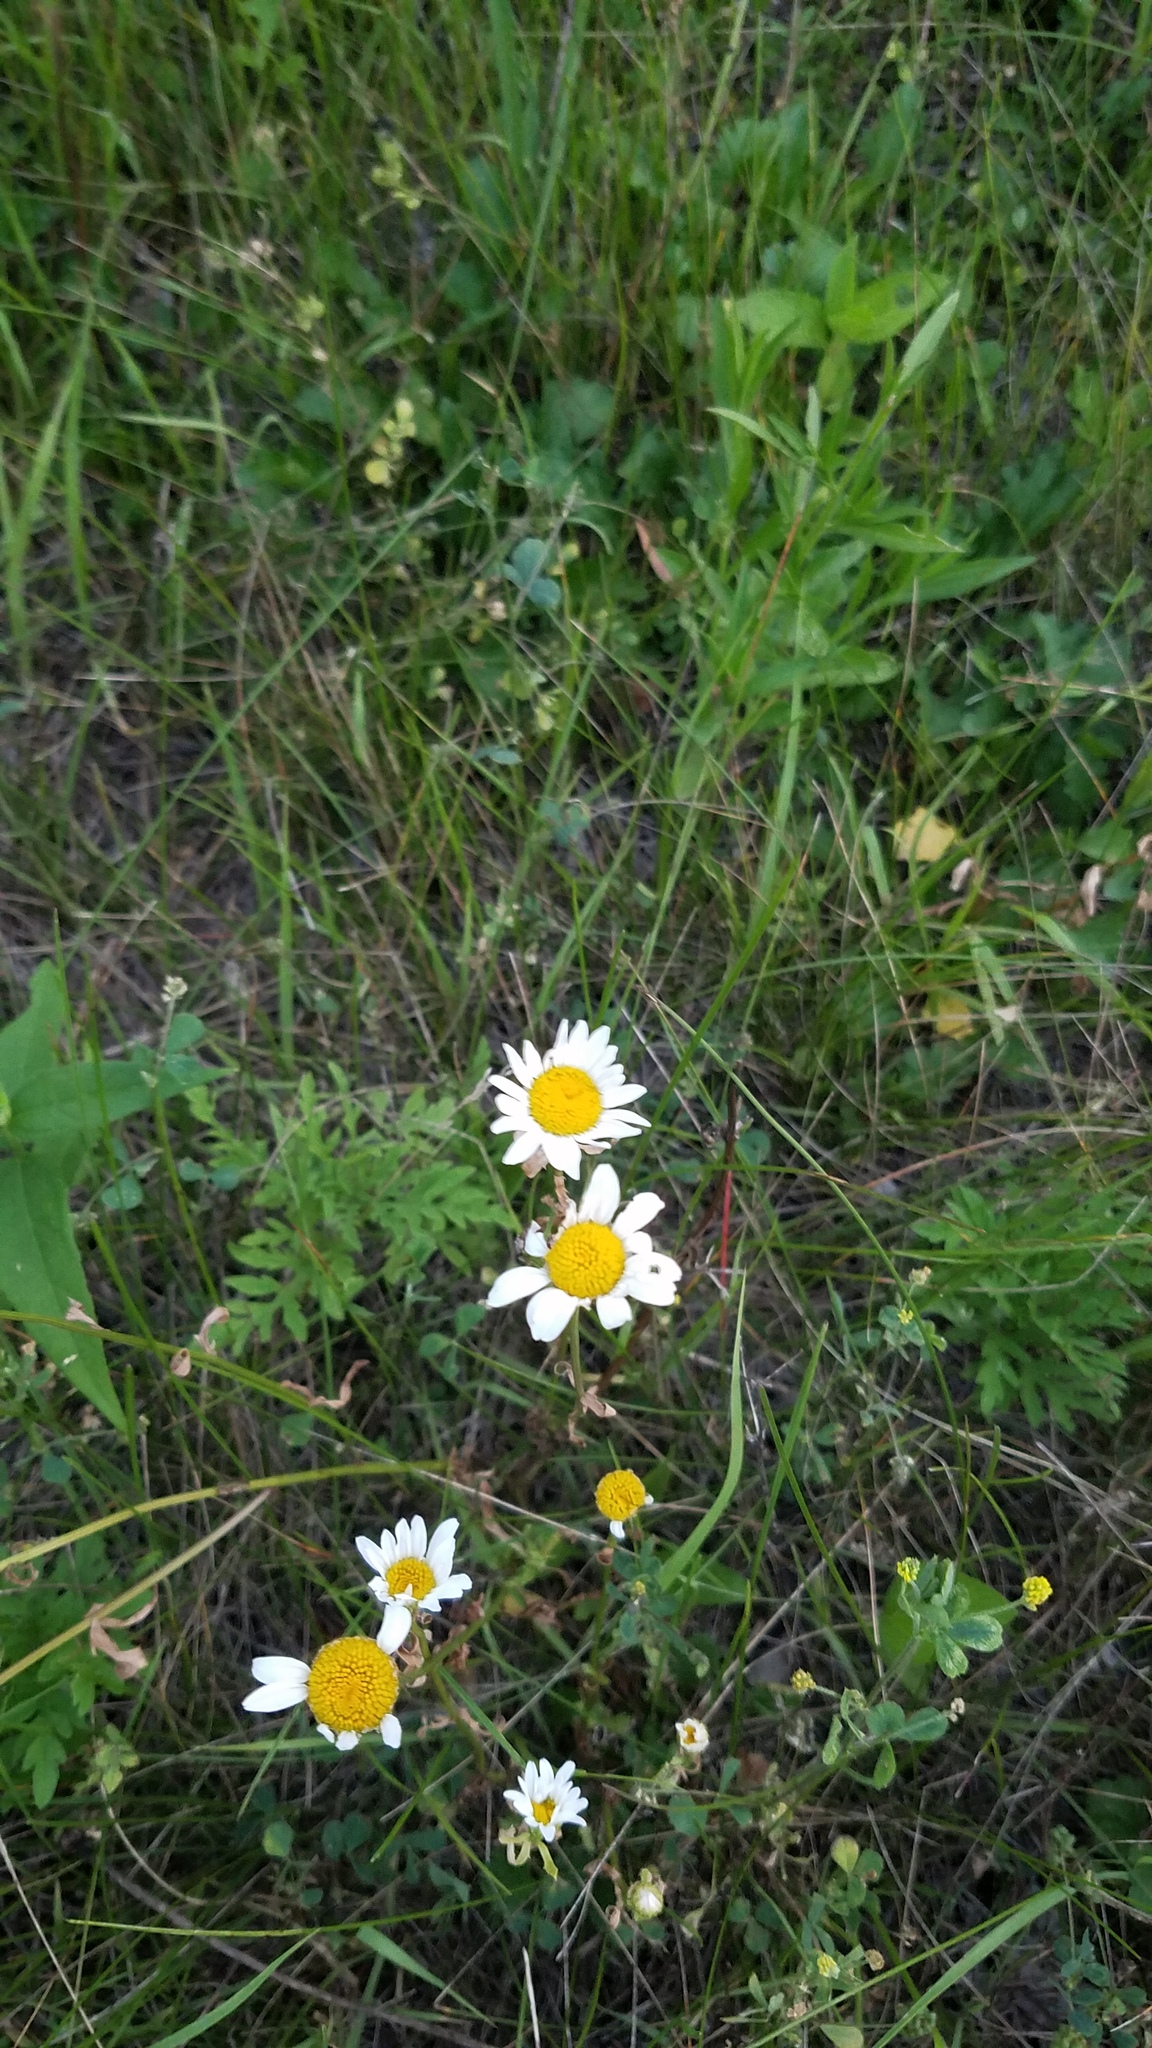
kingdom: Plantae
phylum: Tracheophyta
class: Magnoliopsida
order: Asterales
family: Asteraceae
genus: Leucanthemum
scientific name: Leucanthemum vulgare
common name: Oxeye daisy
